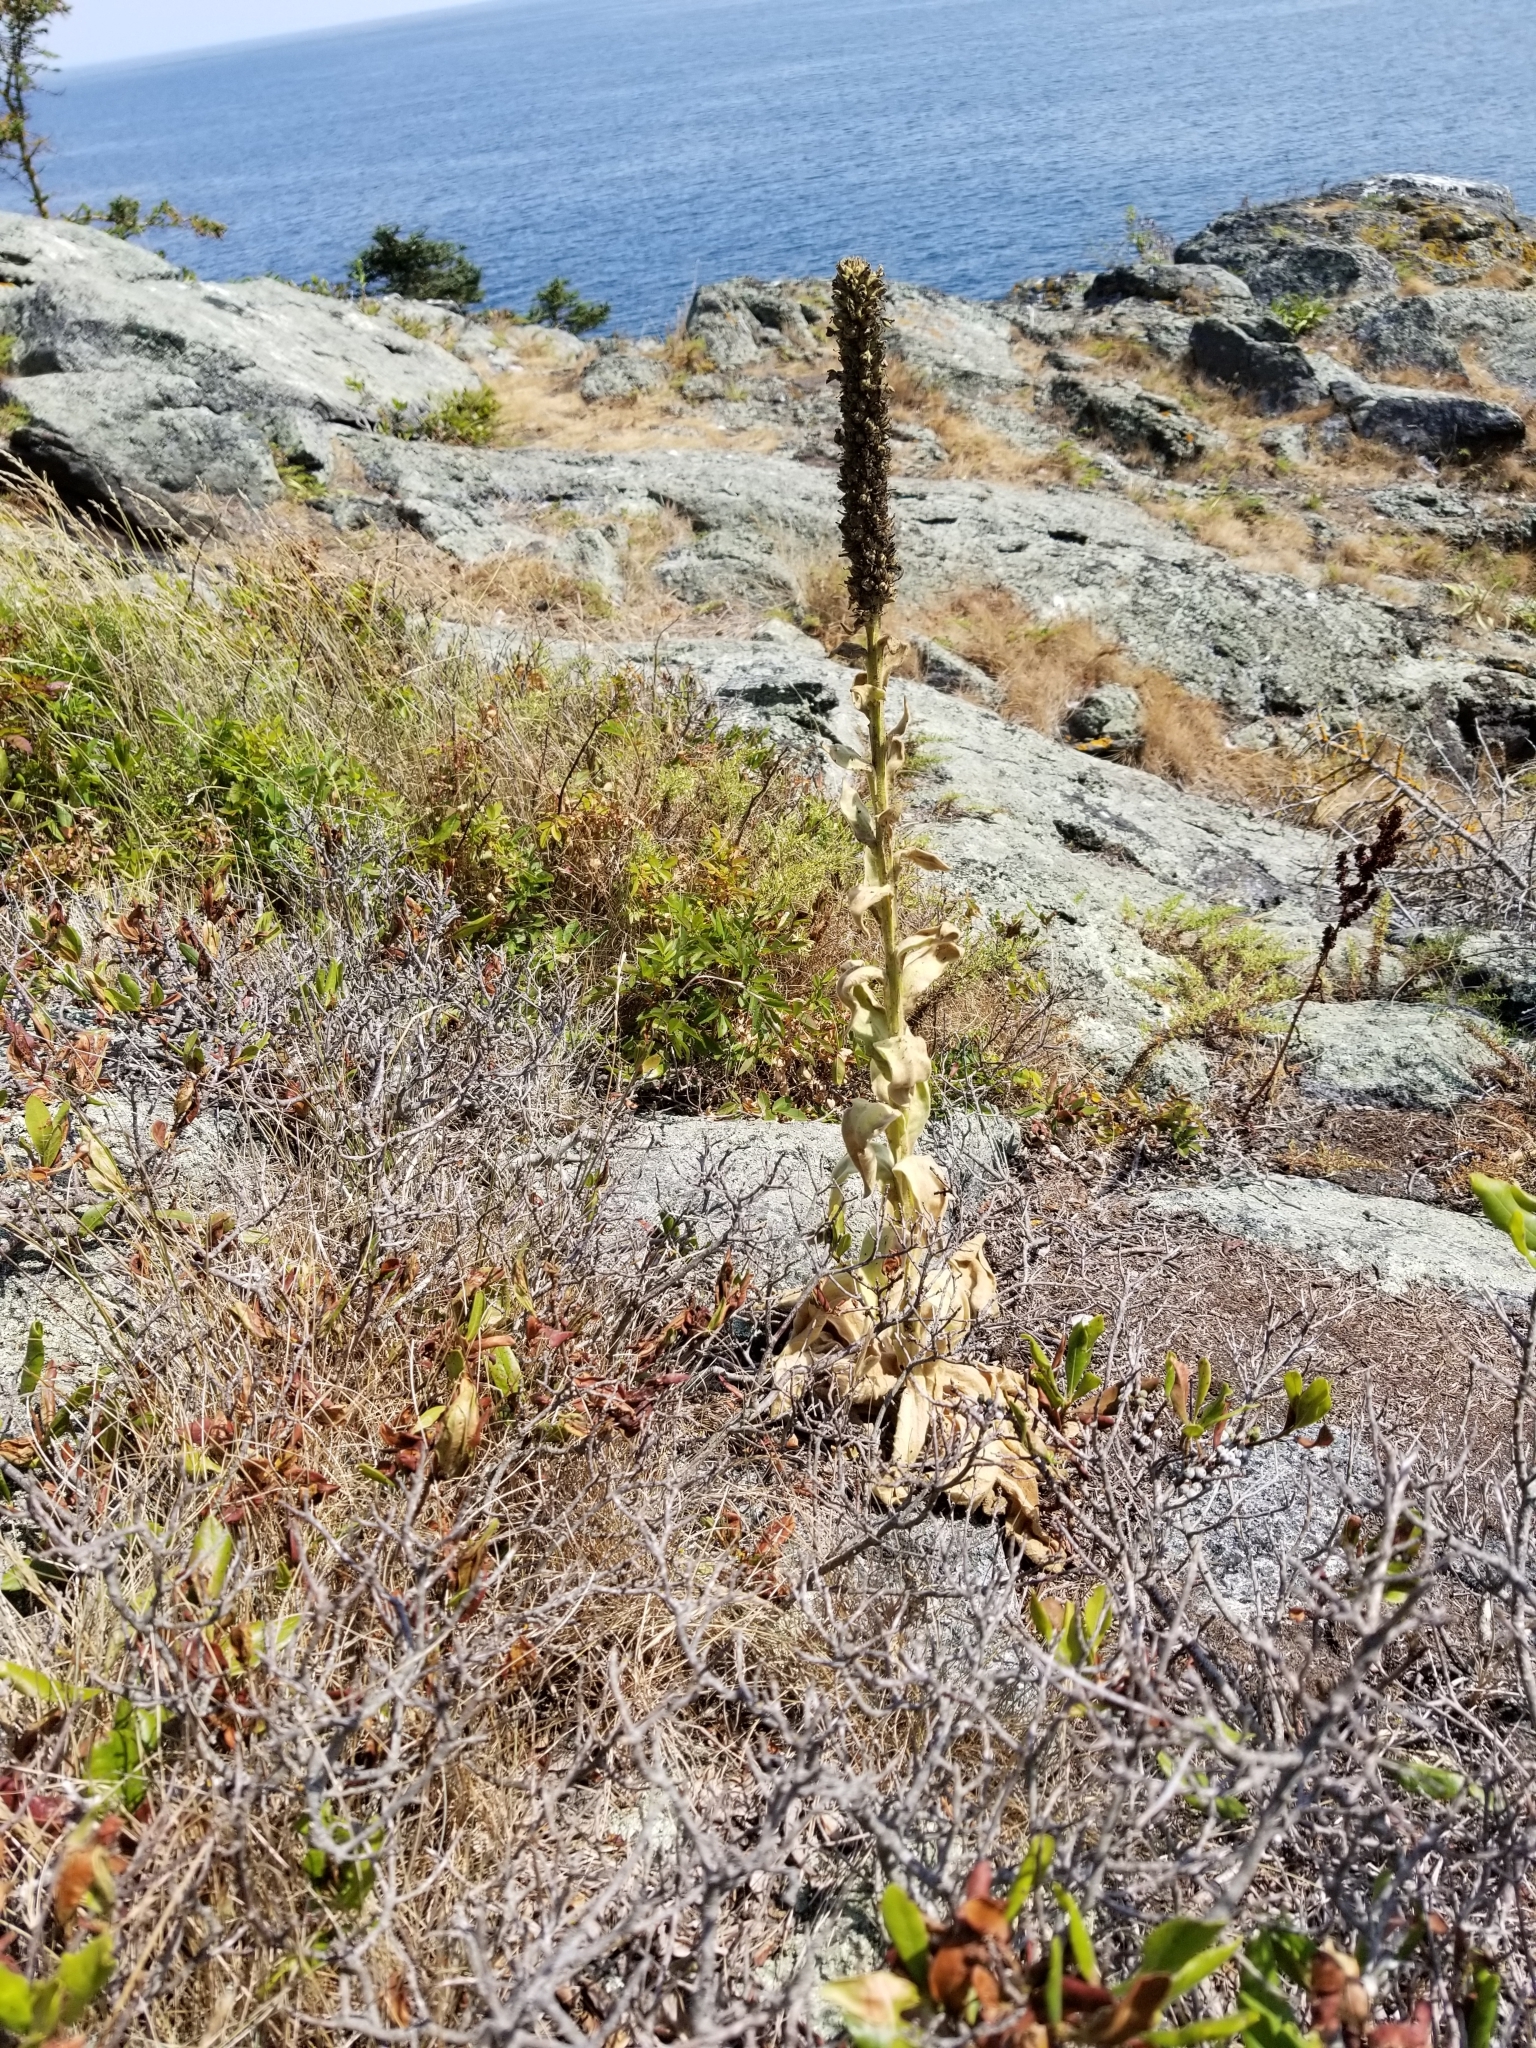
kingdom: Plantae
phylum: Tracheophyta
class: Magnoliopsida
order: Lamiales
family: Scrophulariaceae
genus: Verbascum
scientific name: Verbascum thapsus
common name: Common mullein
